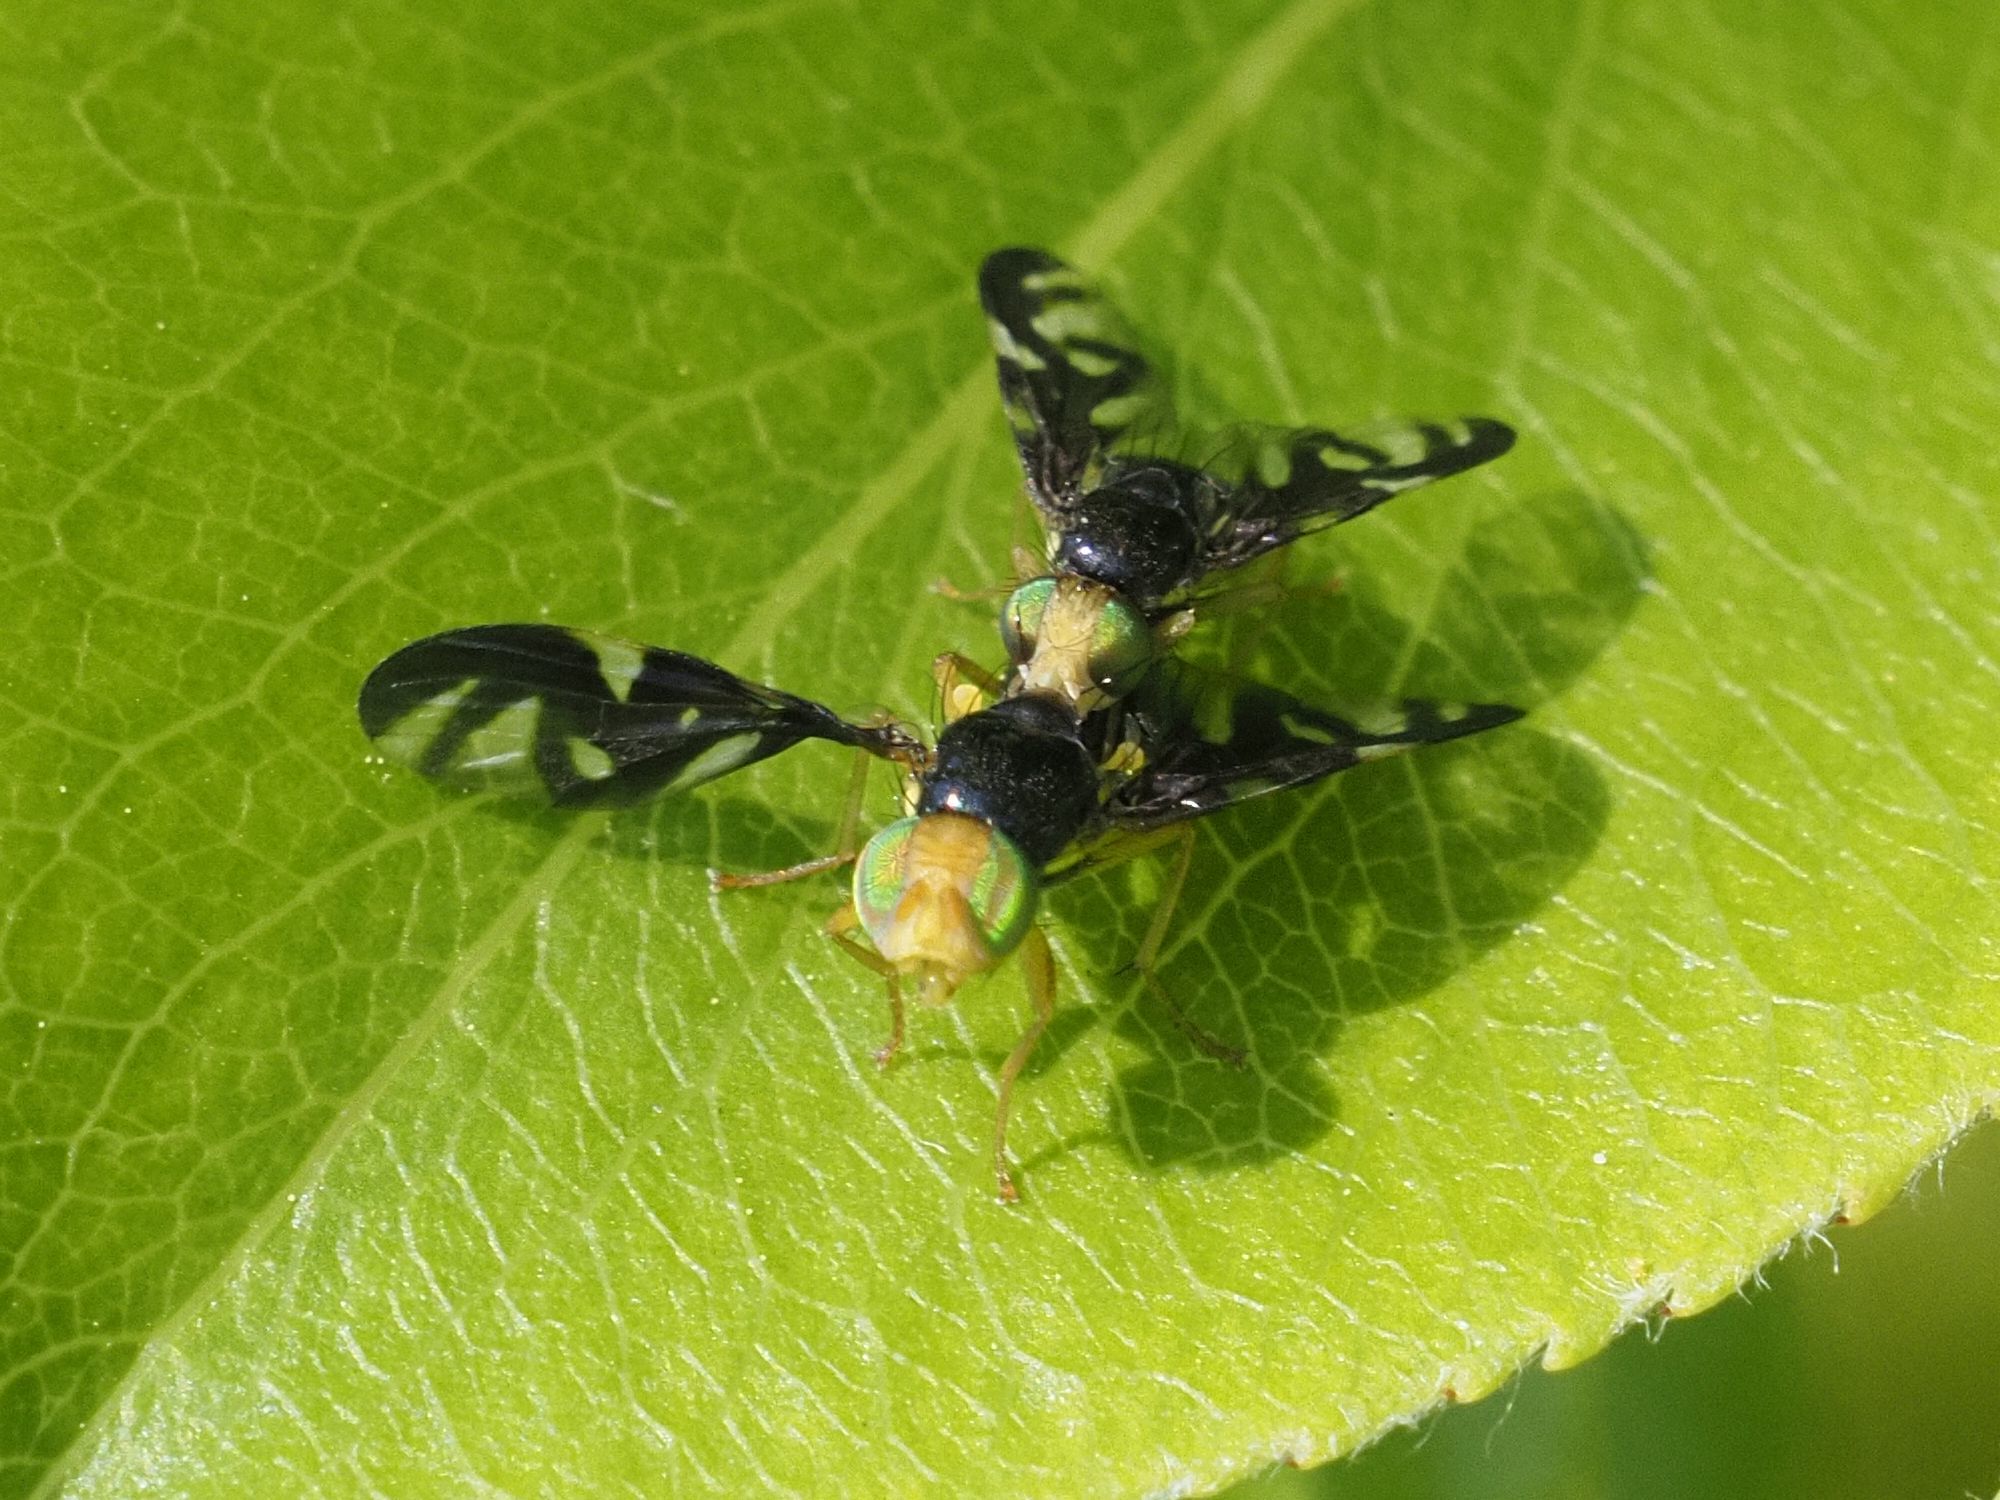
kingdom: Animalia
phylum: Arthropoda
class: Insecta
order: Diptera
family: Tephritidae
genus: Euleia
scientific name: Euleia heraclei
